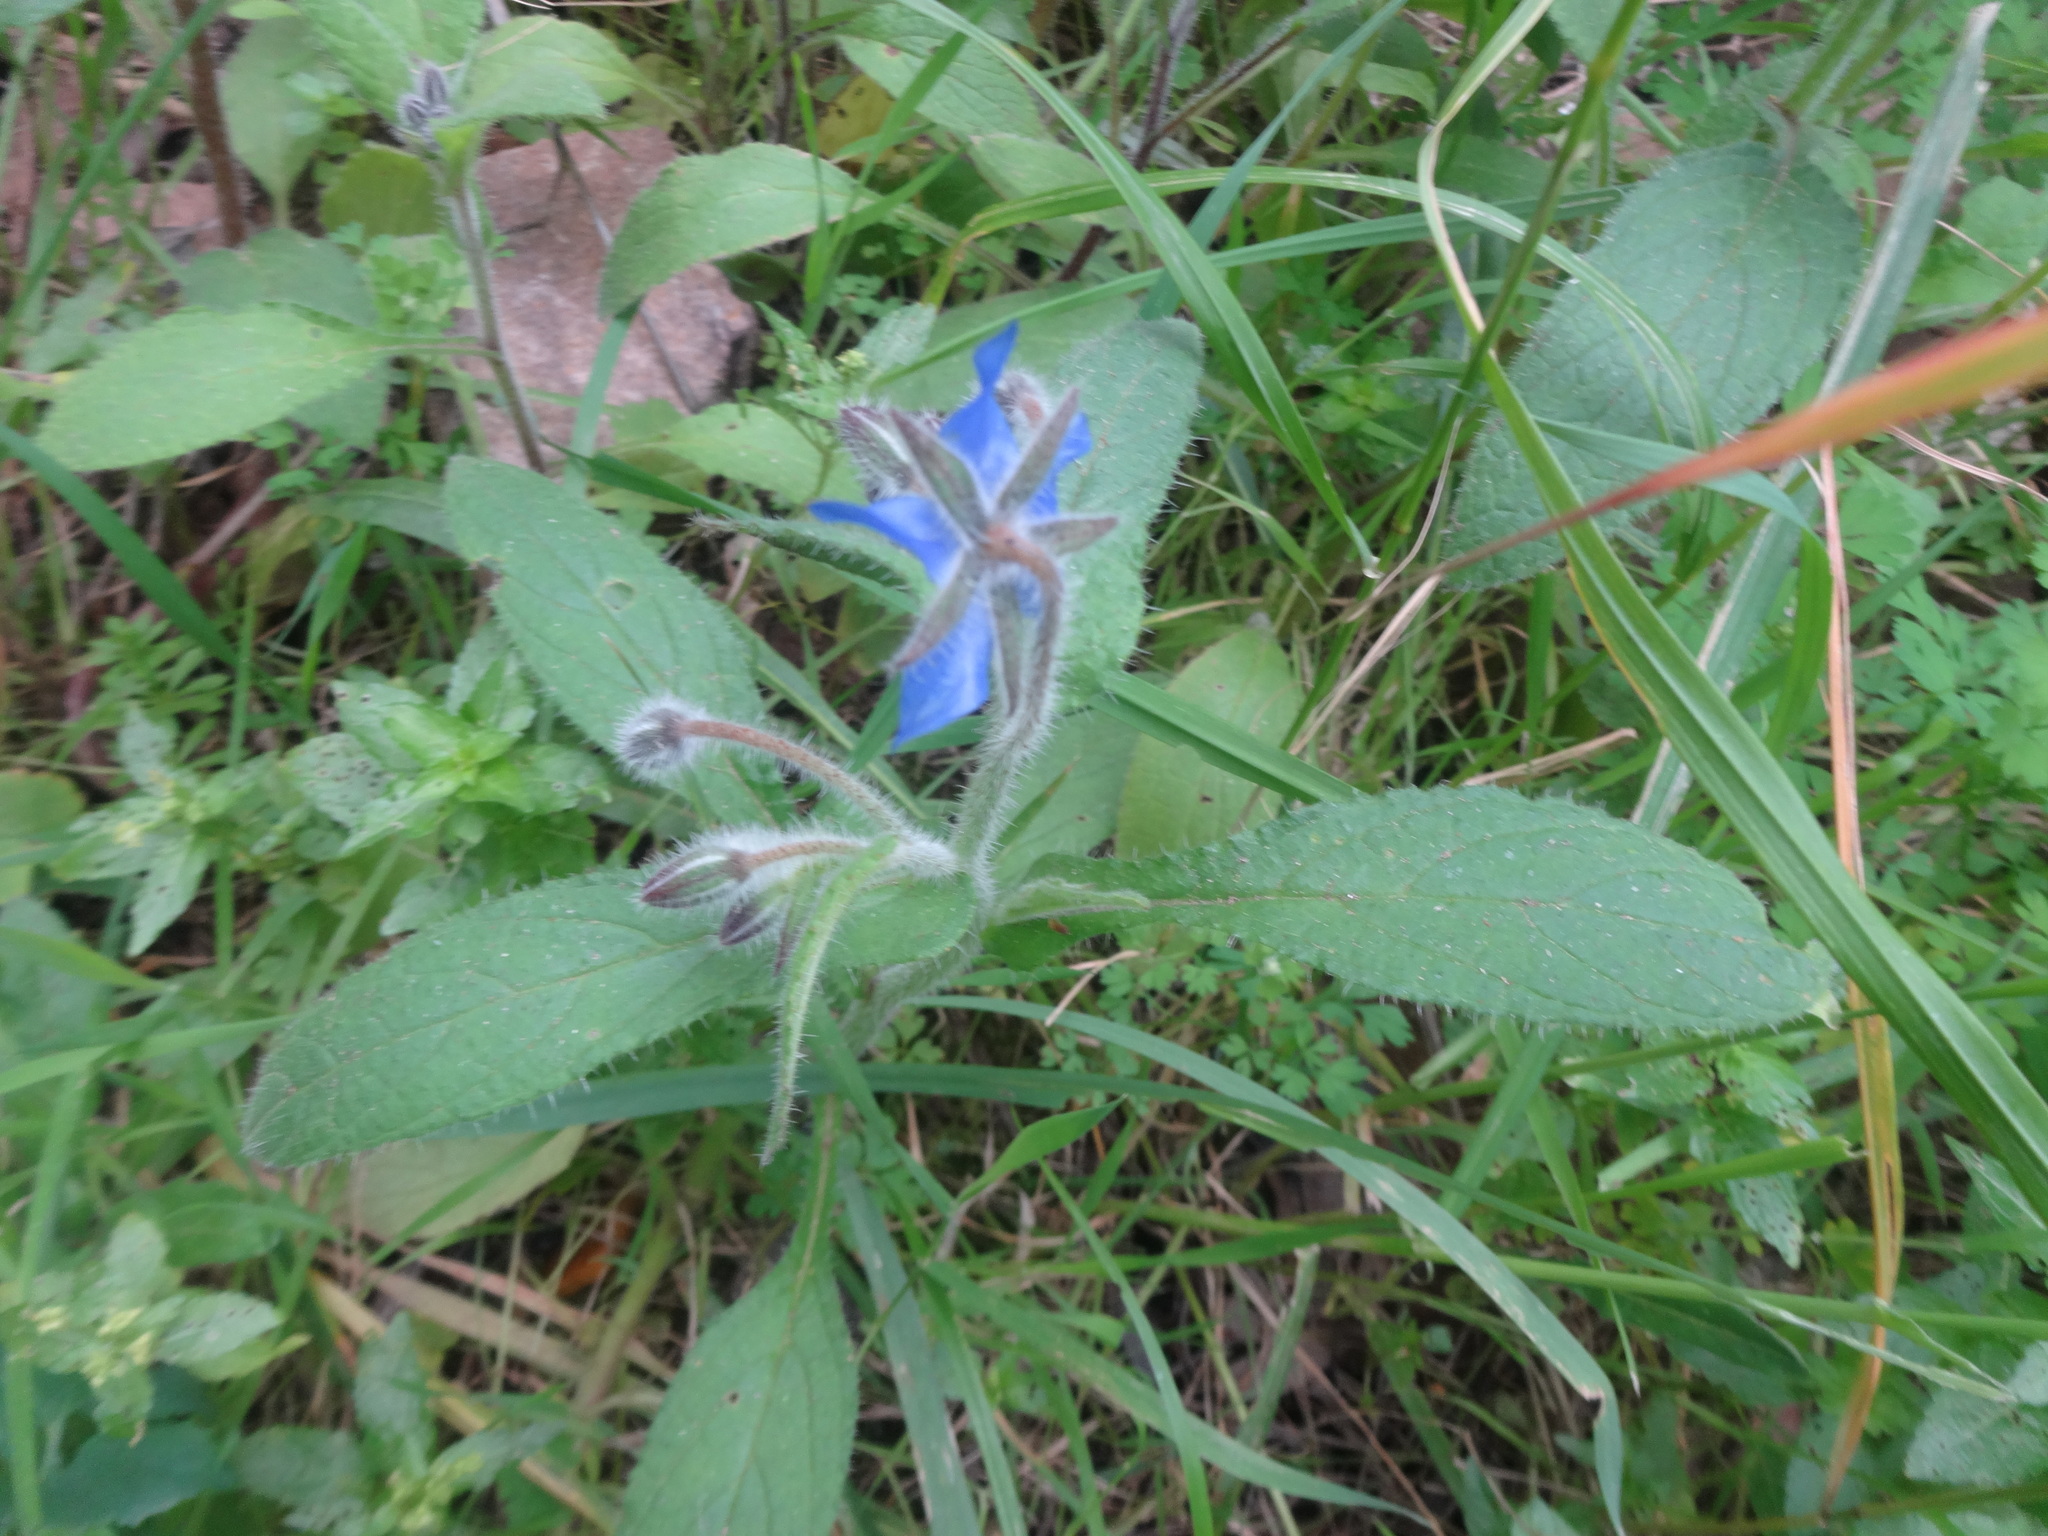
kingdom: Plantae
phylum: Tracheophyta
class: Magnoliopsida
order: Boraginales
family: Boraginaceae
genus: Borago
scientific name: Borago officinalis
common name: Borage
